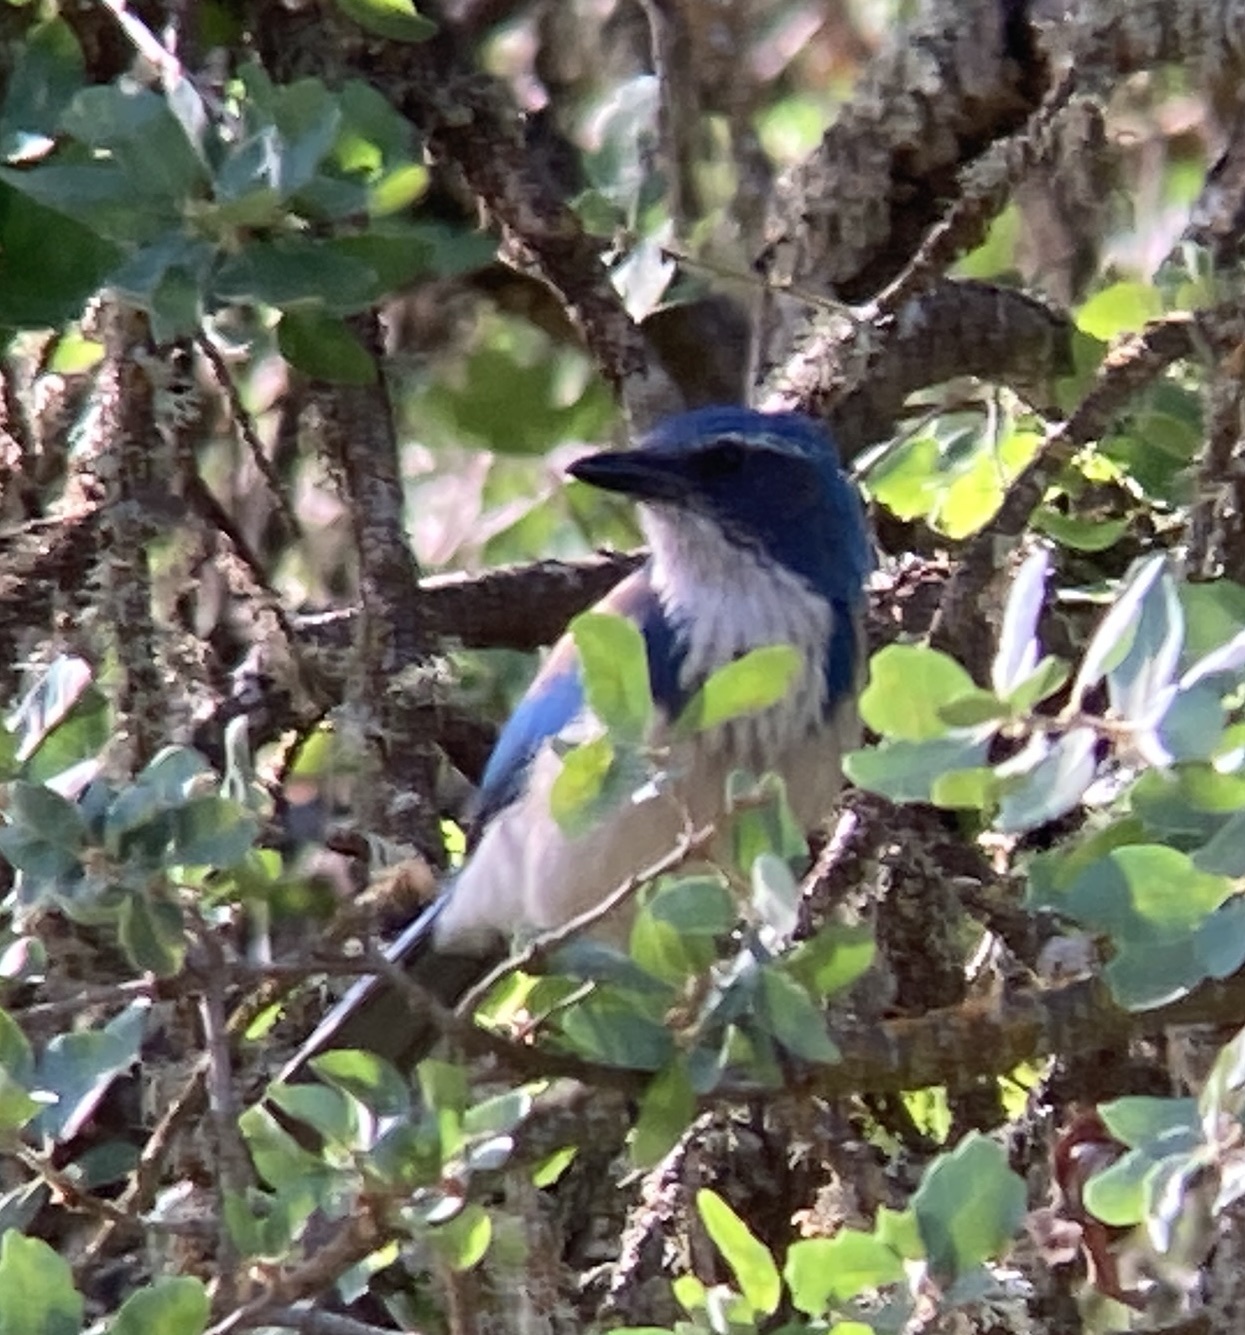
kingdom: Animalia
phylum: Chordata
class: Aves
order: Passeriformes
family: Corvidae
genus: Aphelocoma
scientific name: Aphelocoma californica
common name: California scrub-jay
